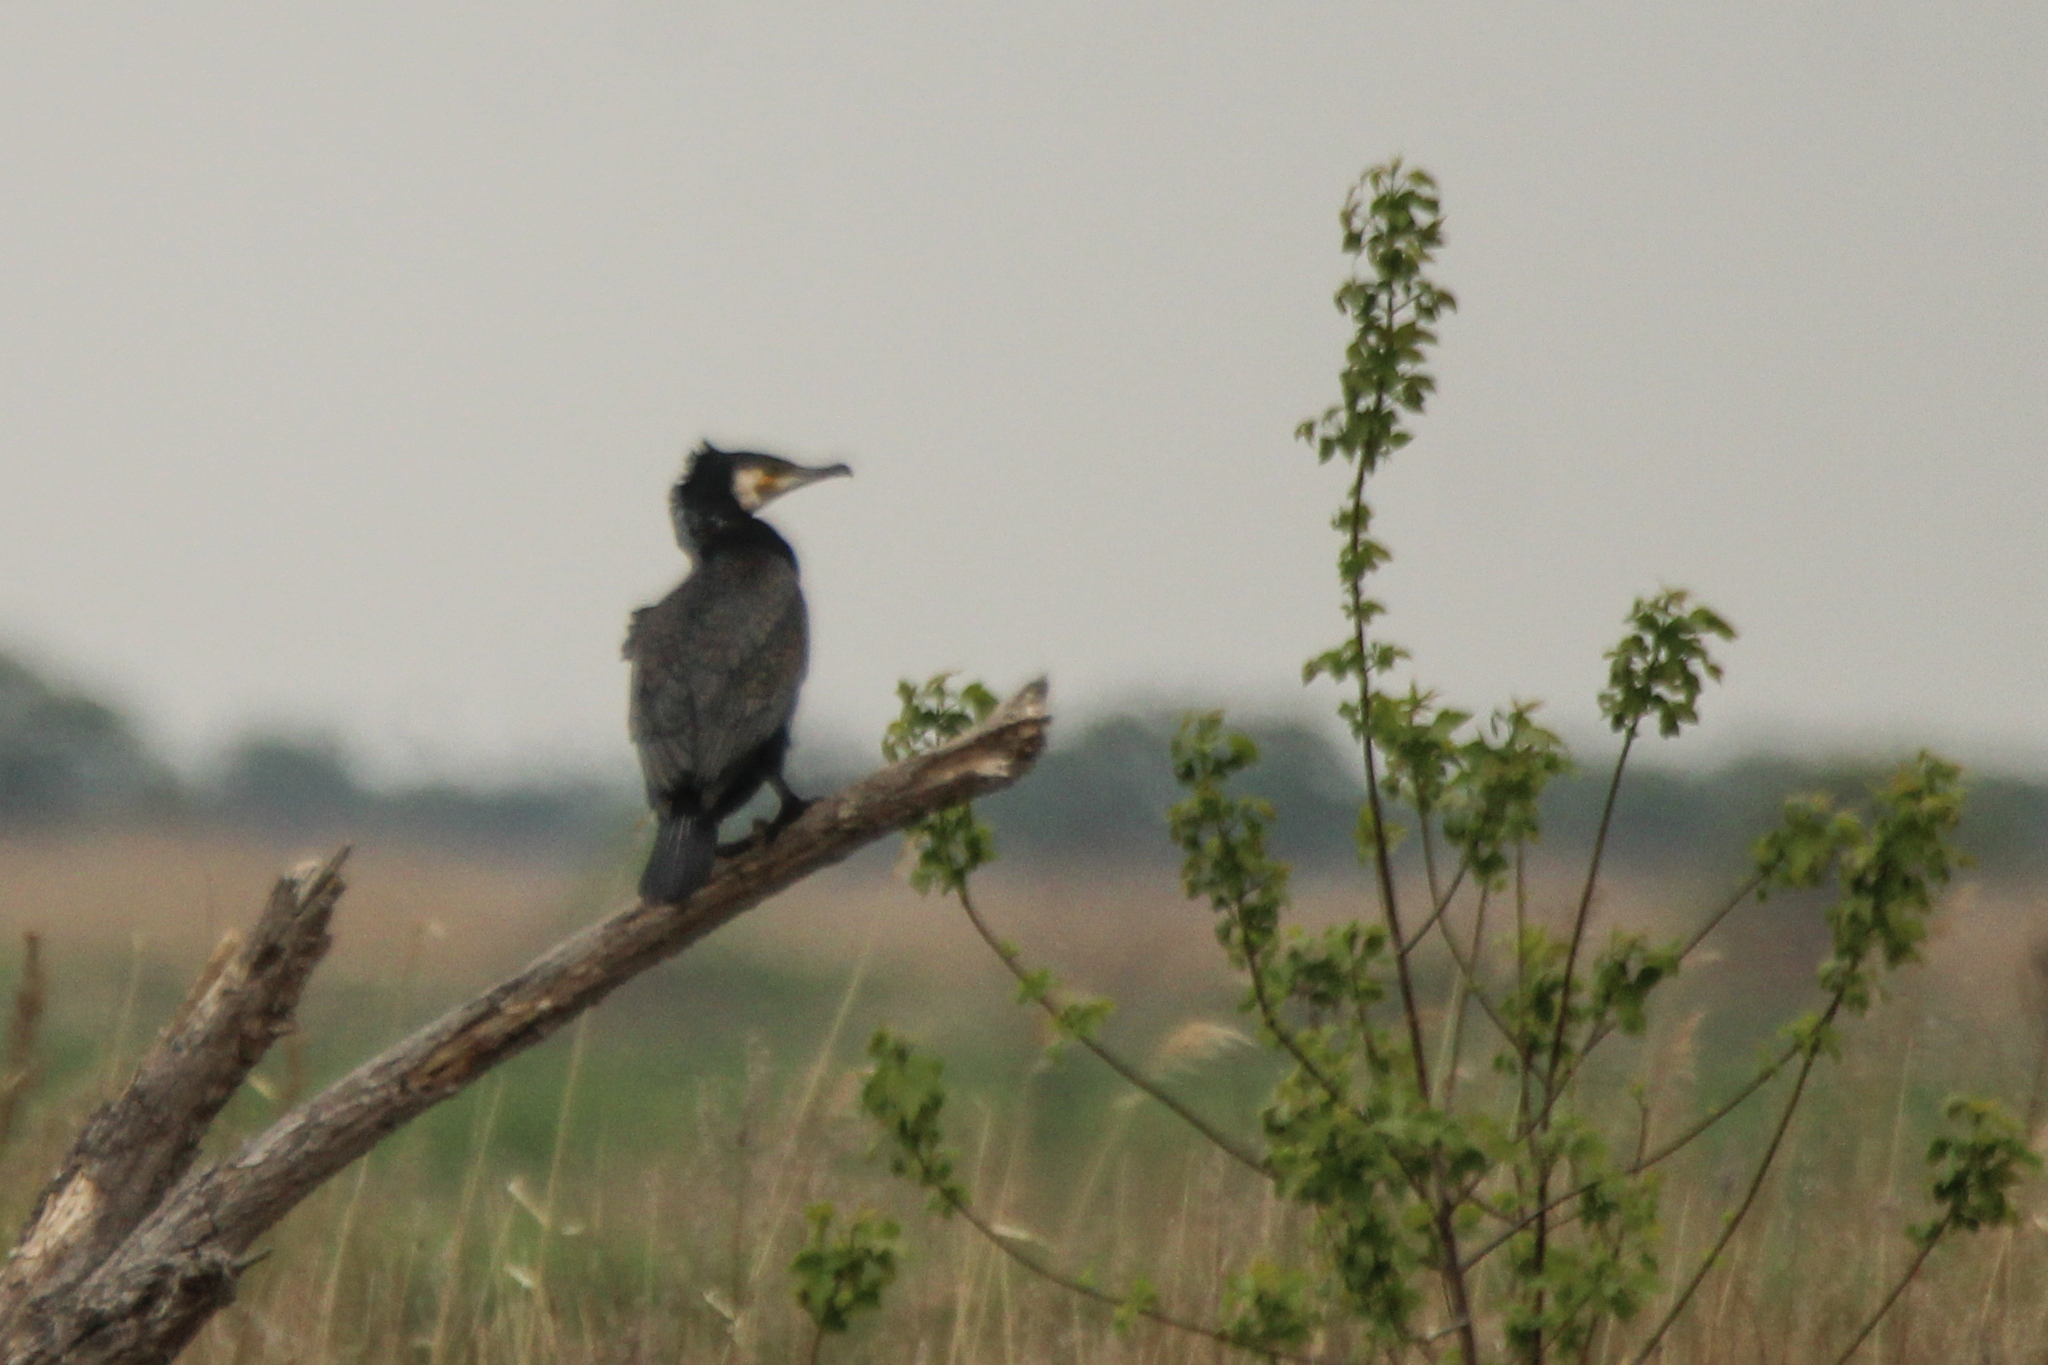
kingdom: Animalia
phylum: Chordata
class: Aves
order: Suliformes
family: Phalacrocoracidae
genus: Phalacrocorax
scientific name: Phalacrocorax carbo
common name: Great cormorant
